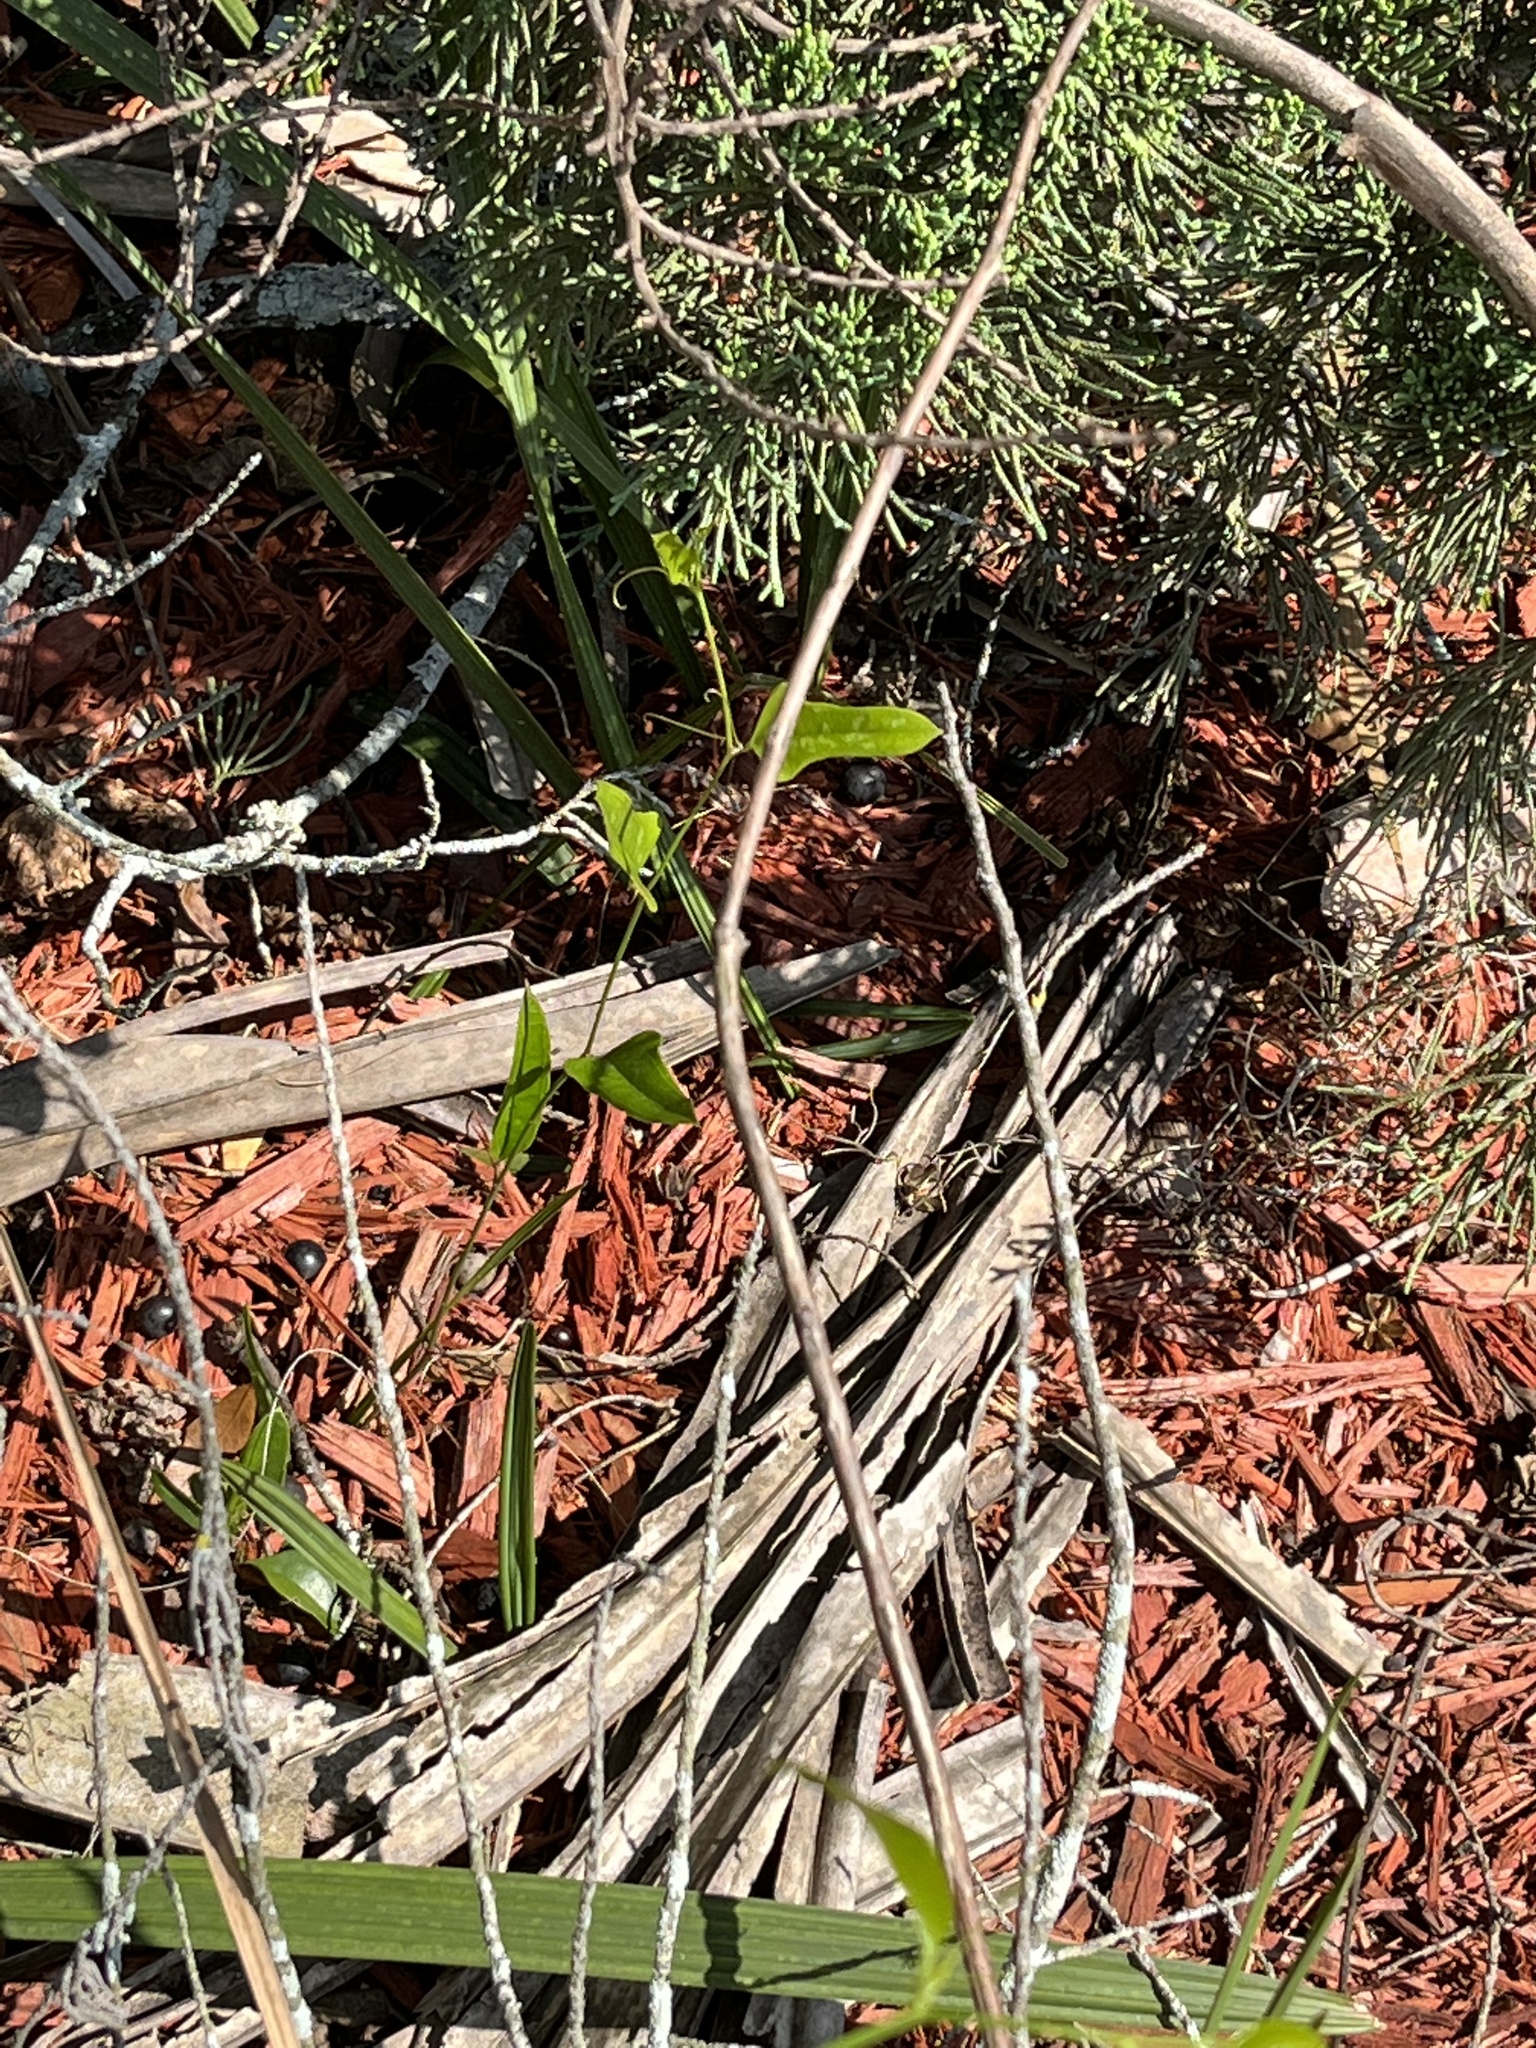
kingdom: Plantae
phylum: Tracheophyta
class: Liliopsida
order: Liliales
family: Smilacaceae
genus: Smilax
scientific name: Smilax auriculata
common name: Wild bamboo
